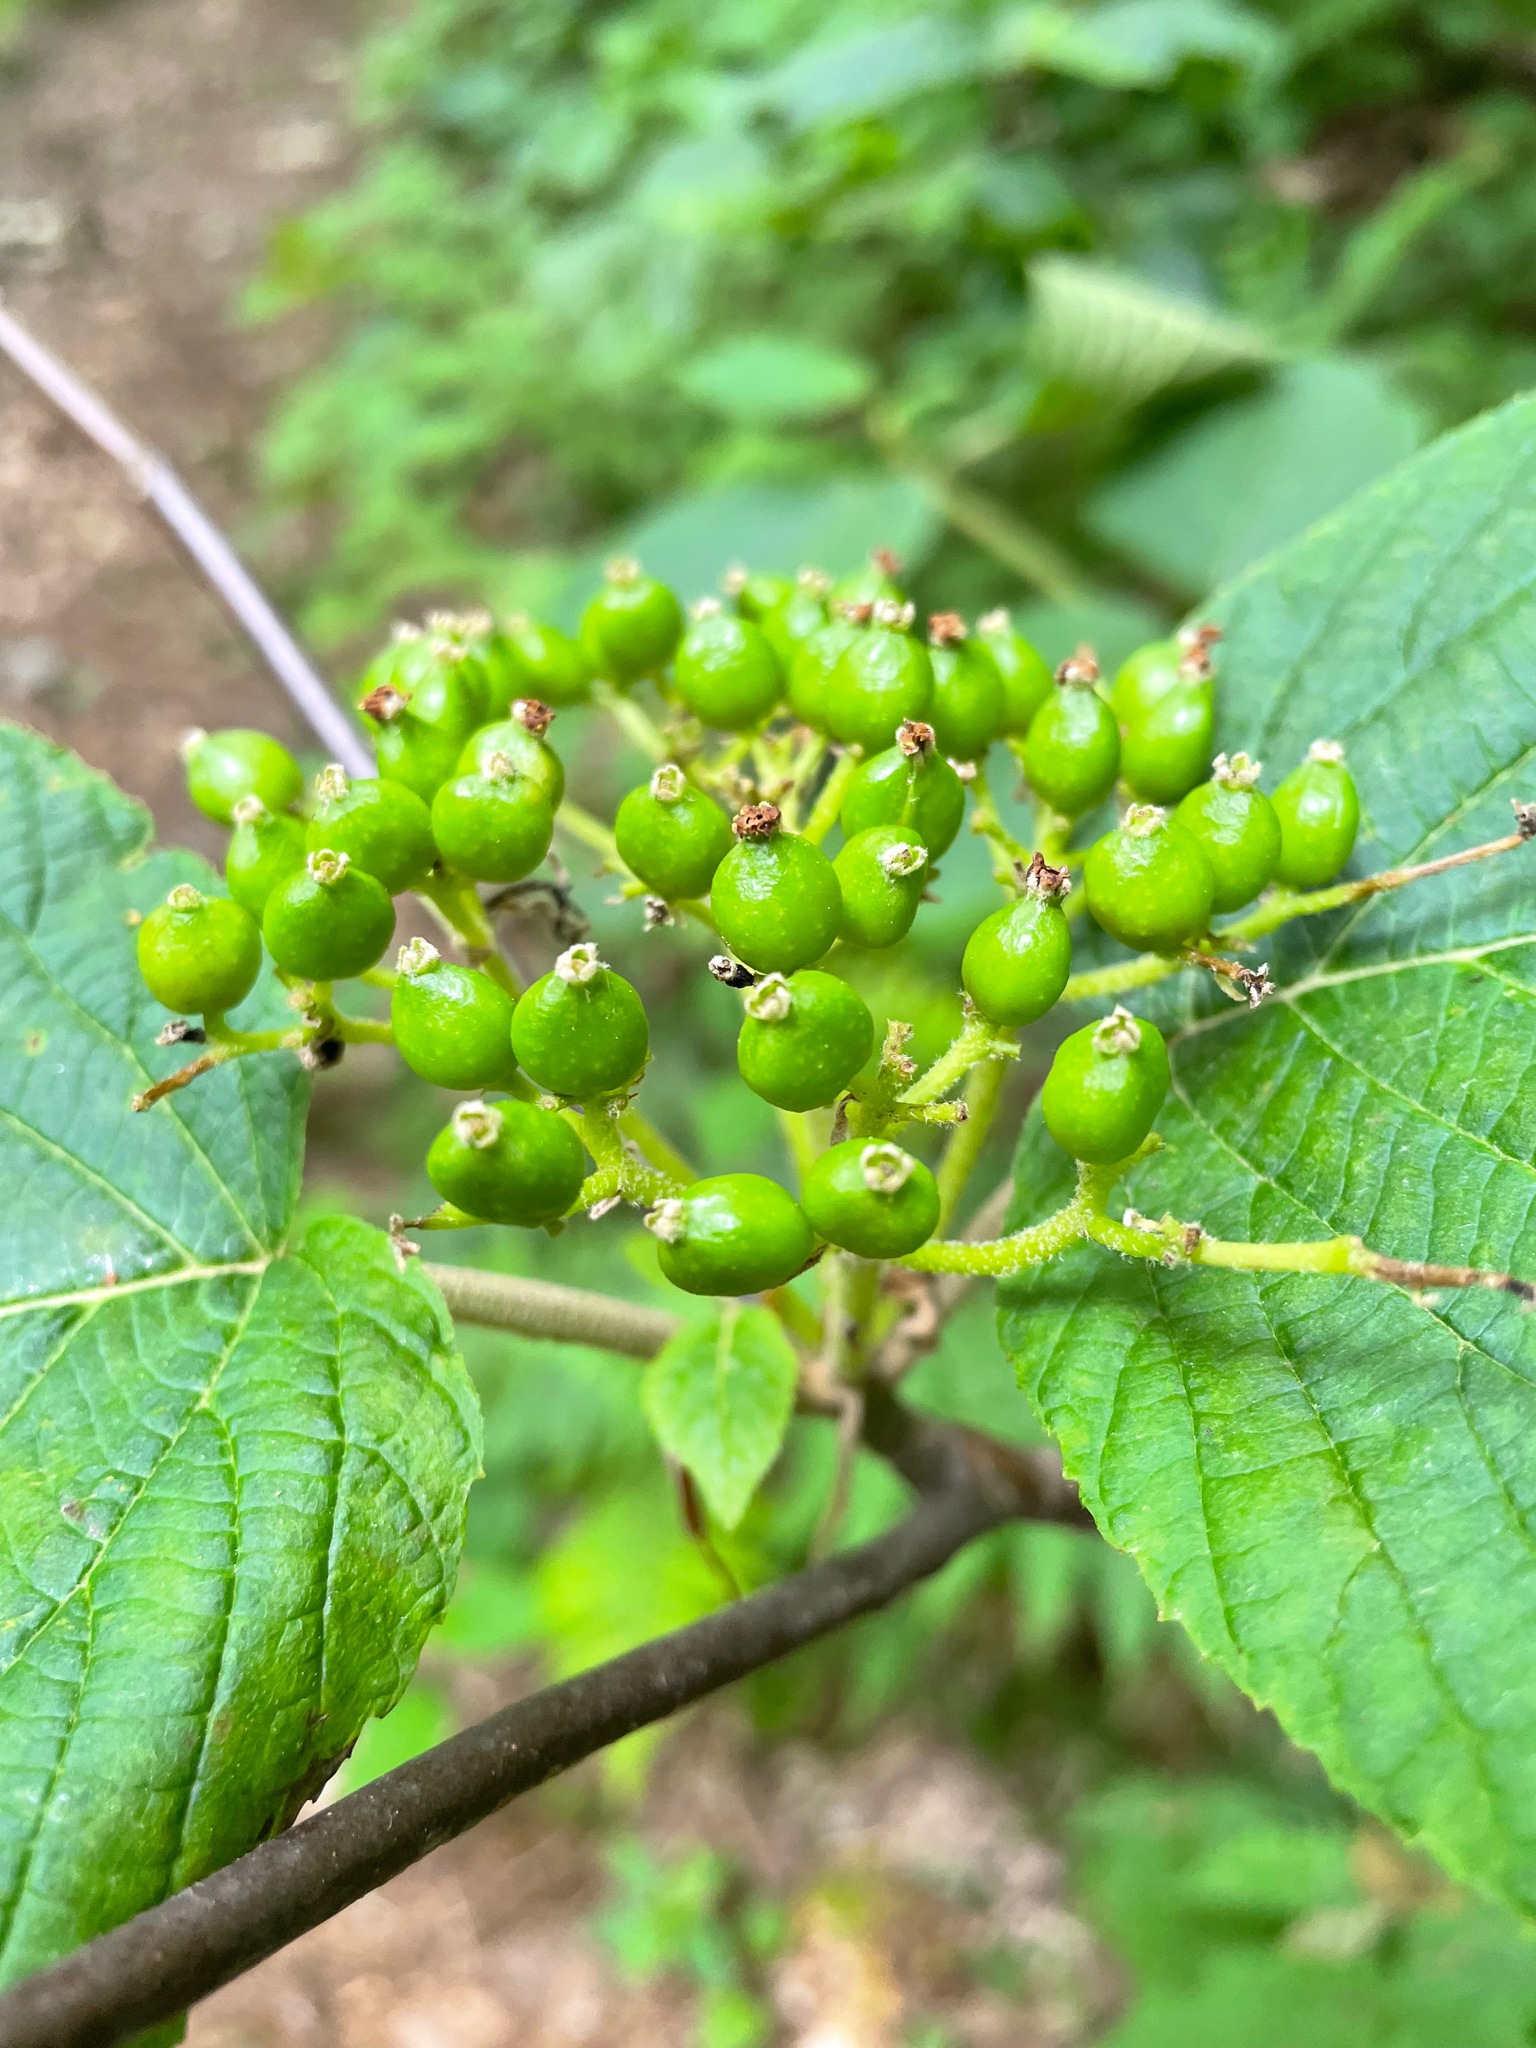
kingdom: Plantae
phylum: Tracheophyta
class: Magnoliopsida
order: Dipsacales
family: Viburnaceae
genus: Viburnum
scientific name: Viburnum lantanoides
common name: Hobblebush
